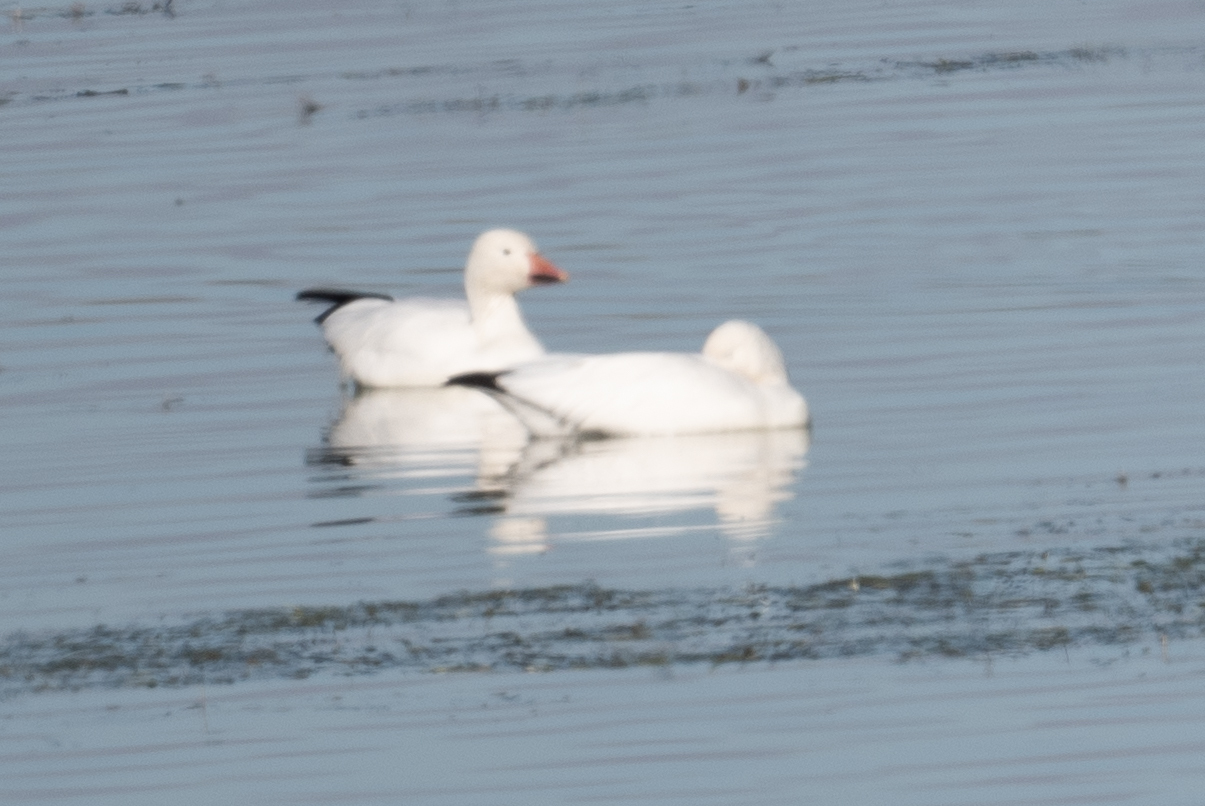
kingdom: Animalia
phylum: Chordata
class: Aves
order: Anseriformes
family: Anatidae
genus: Anser
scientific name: Anser caerulescens
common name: Snow goose
